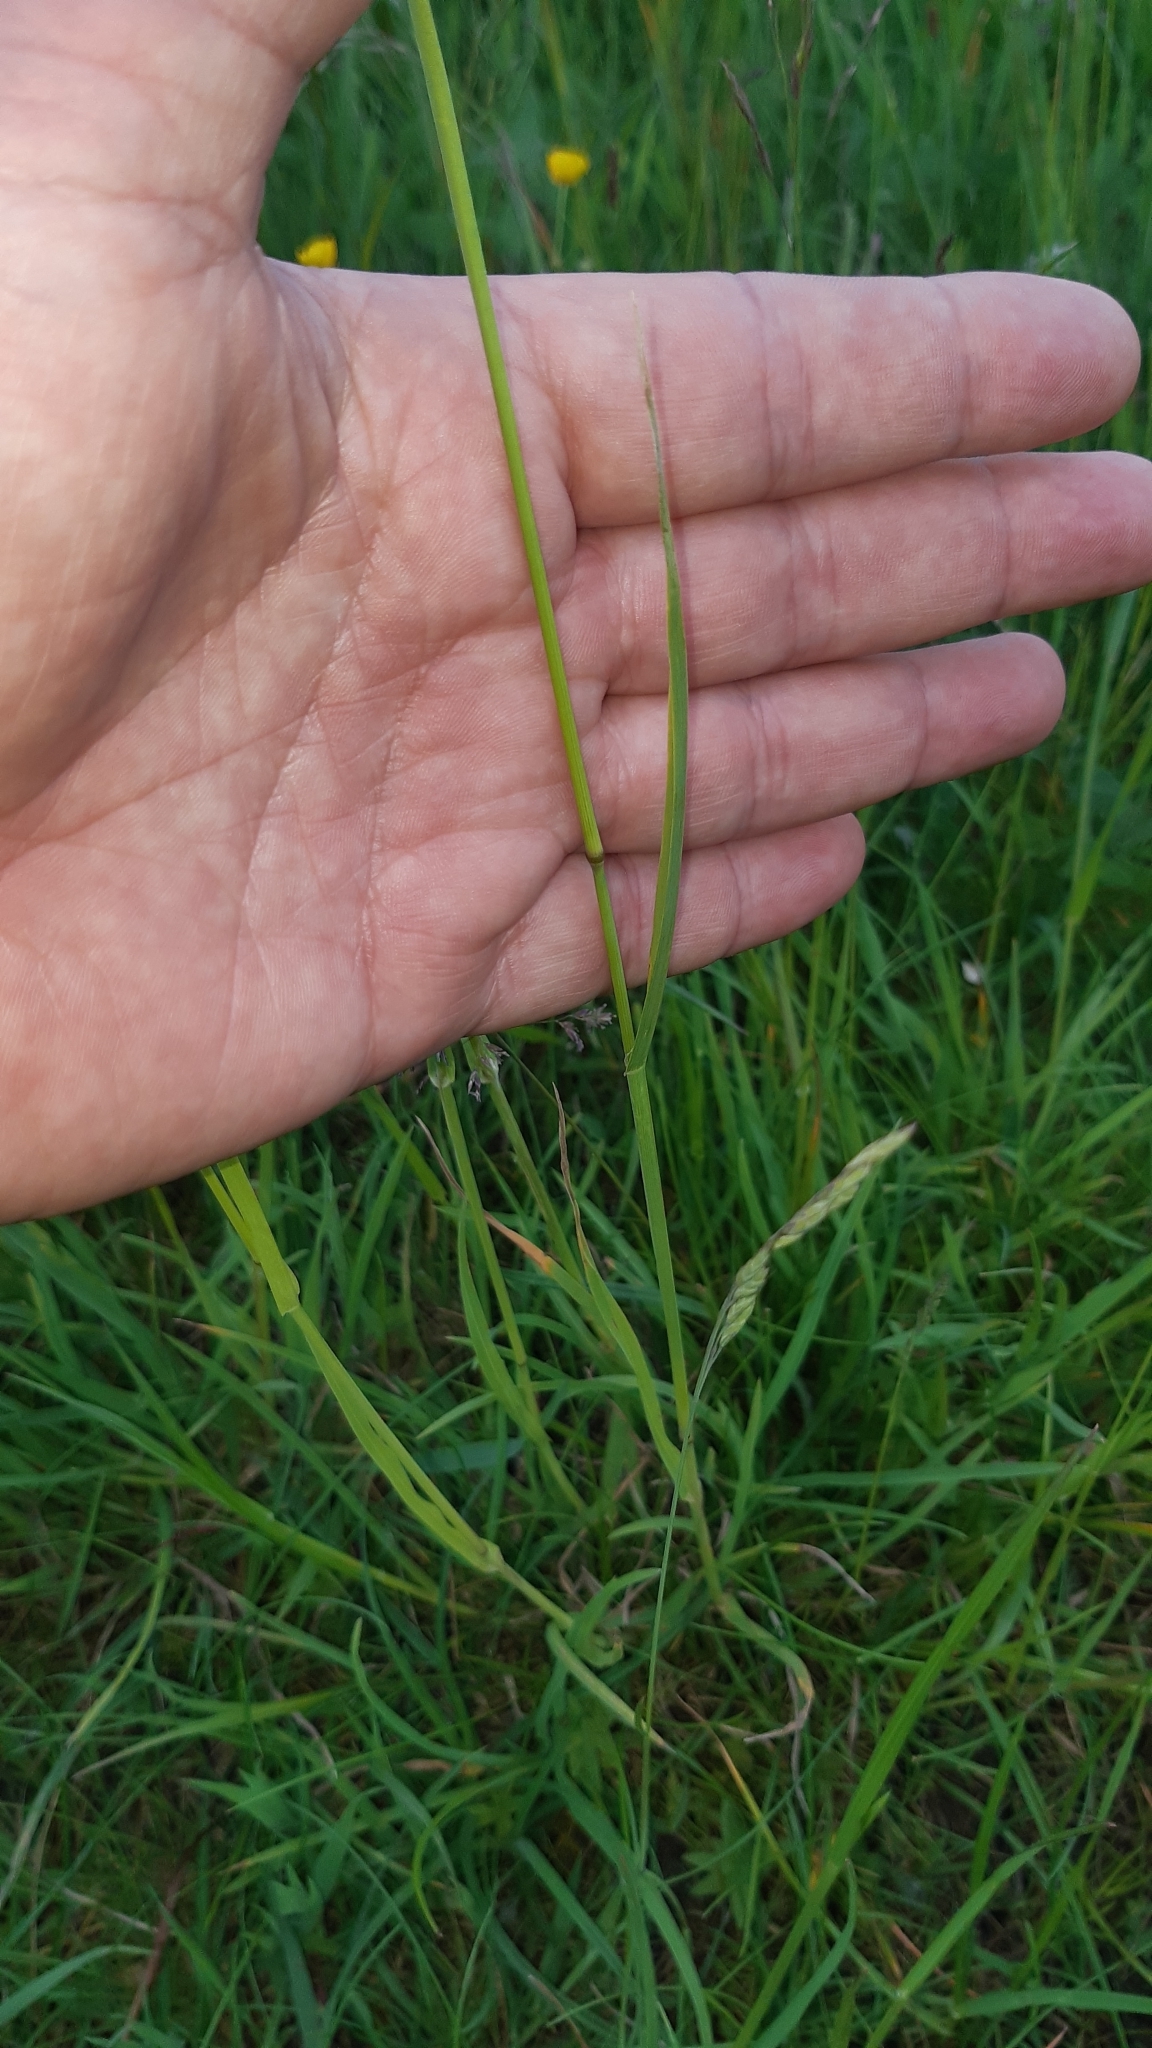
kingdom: Plantae
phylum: Tracheophyta
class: Liliopsida
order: Poales
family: Poaceae
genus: Dactylis
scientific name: Dactylis glomerata
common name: Orchardgrass
